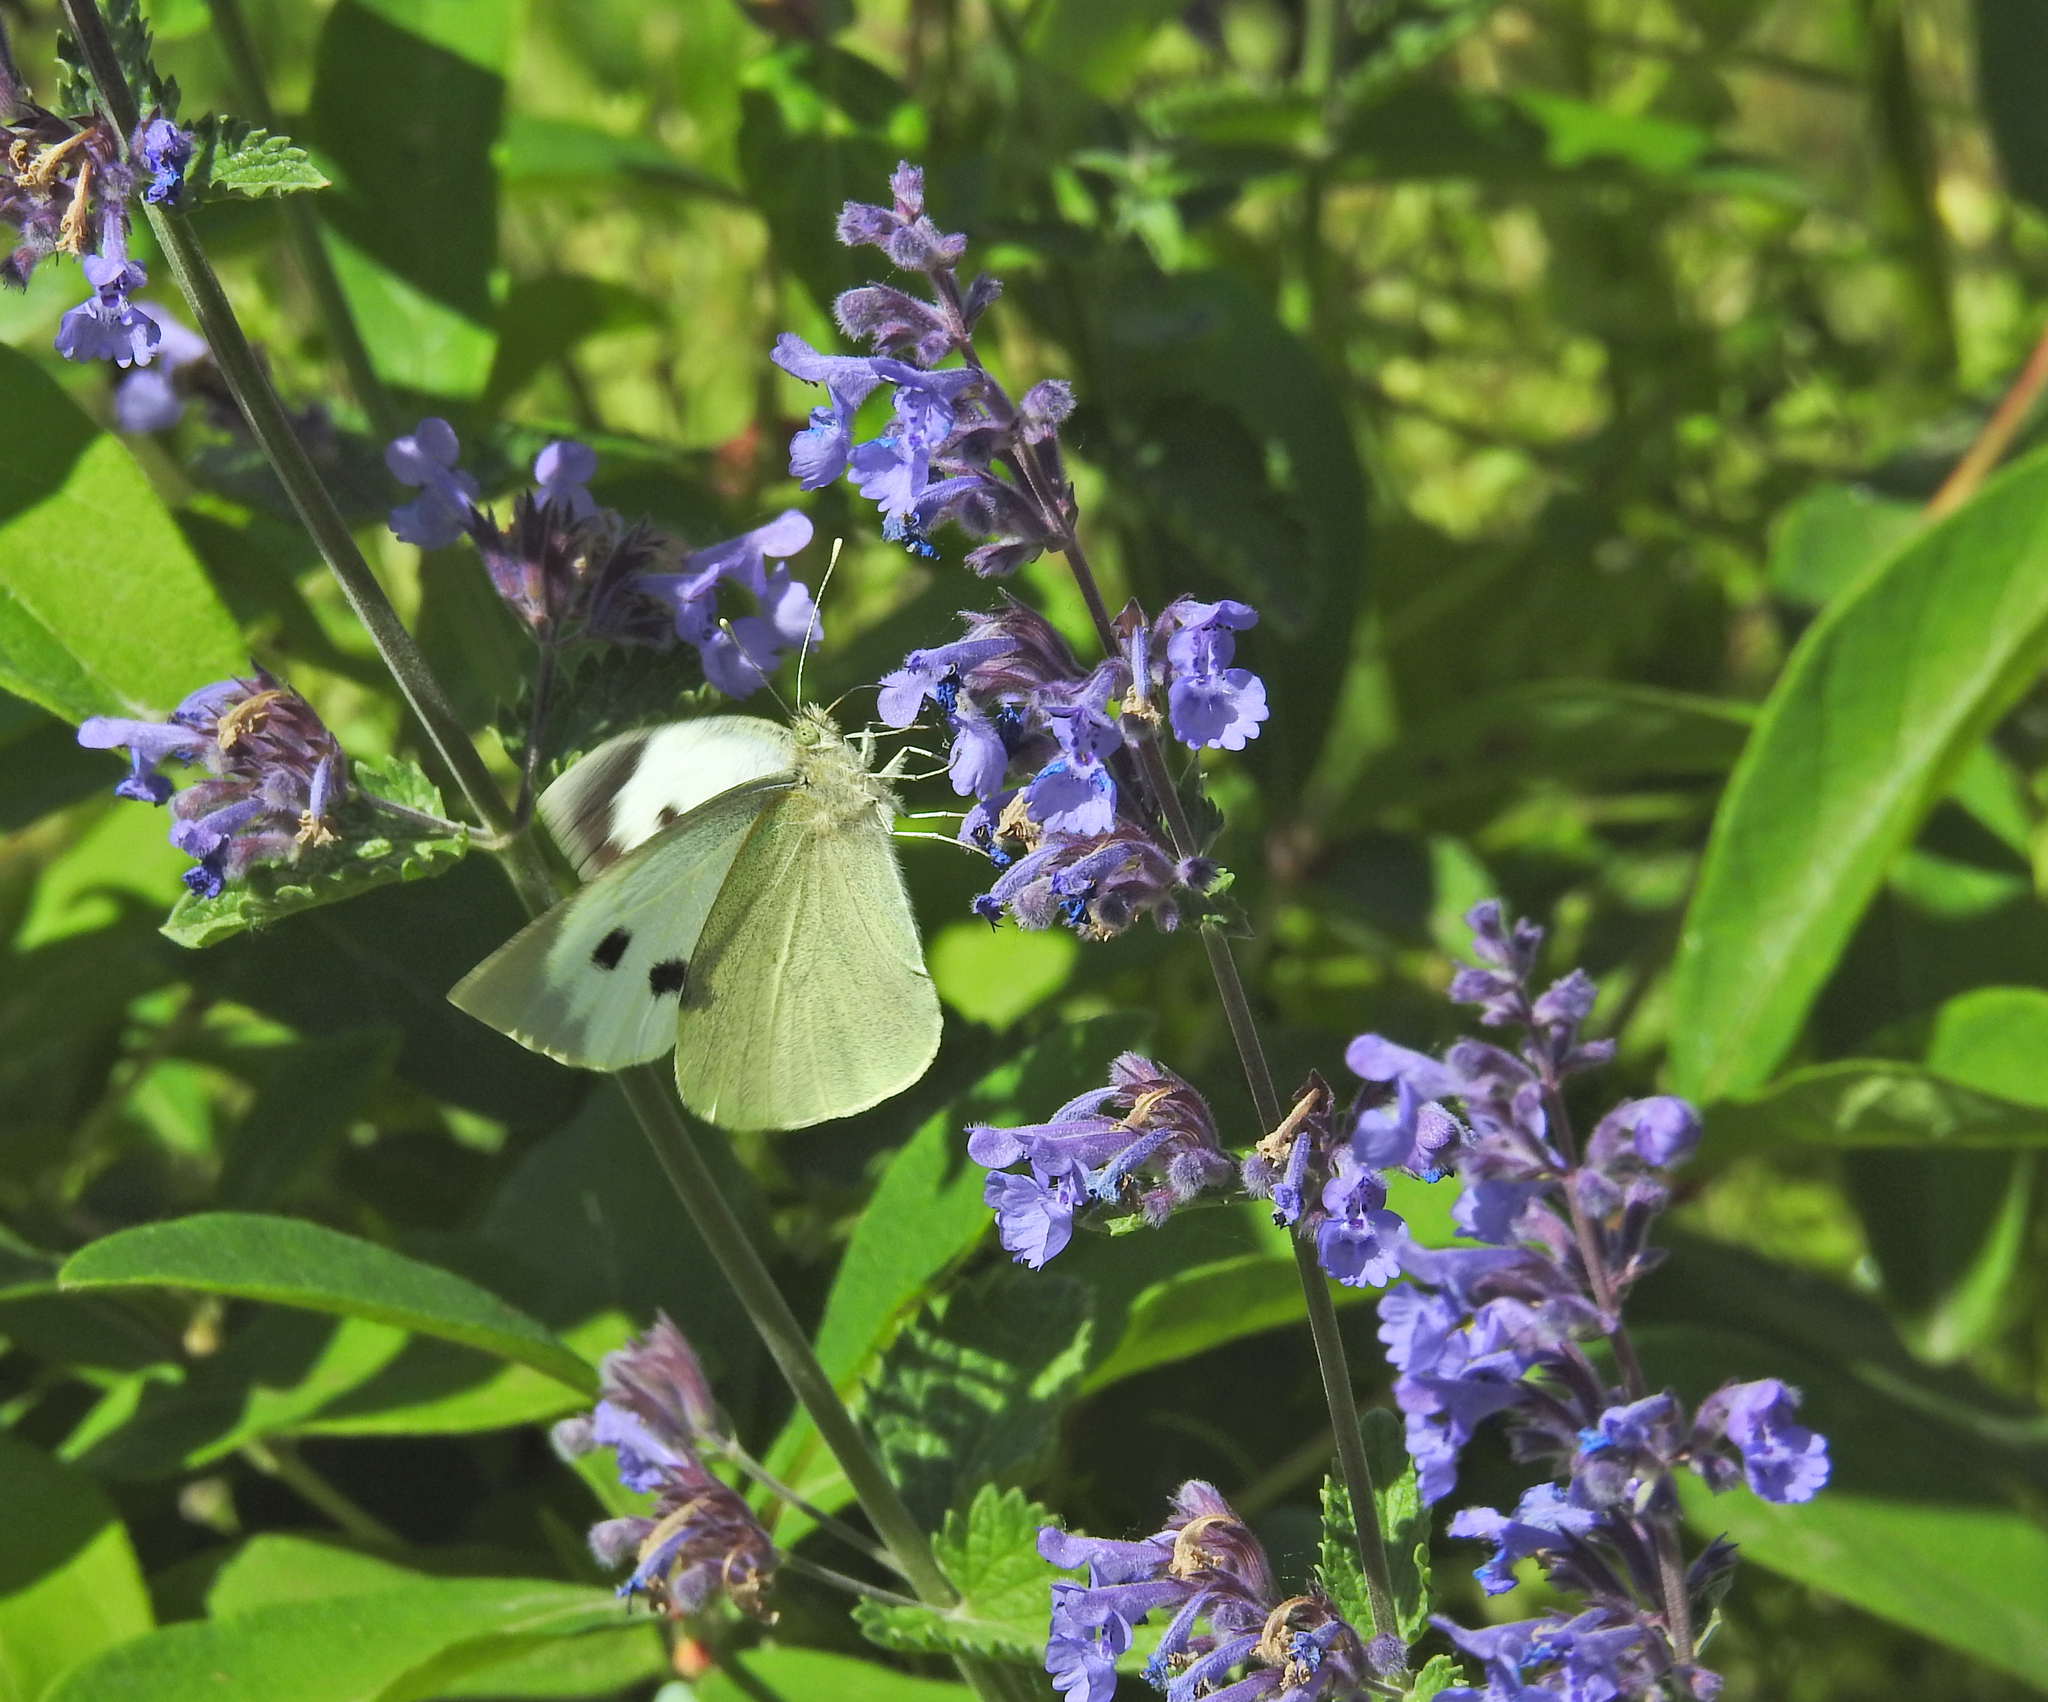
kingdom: Animalia
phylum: Arthropoda
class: Insecta
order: Lepidoptera
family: Pieridae
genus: Pieris
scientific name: Pieris brassicae
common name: Large white
